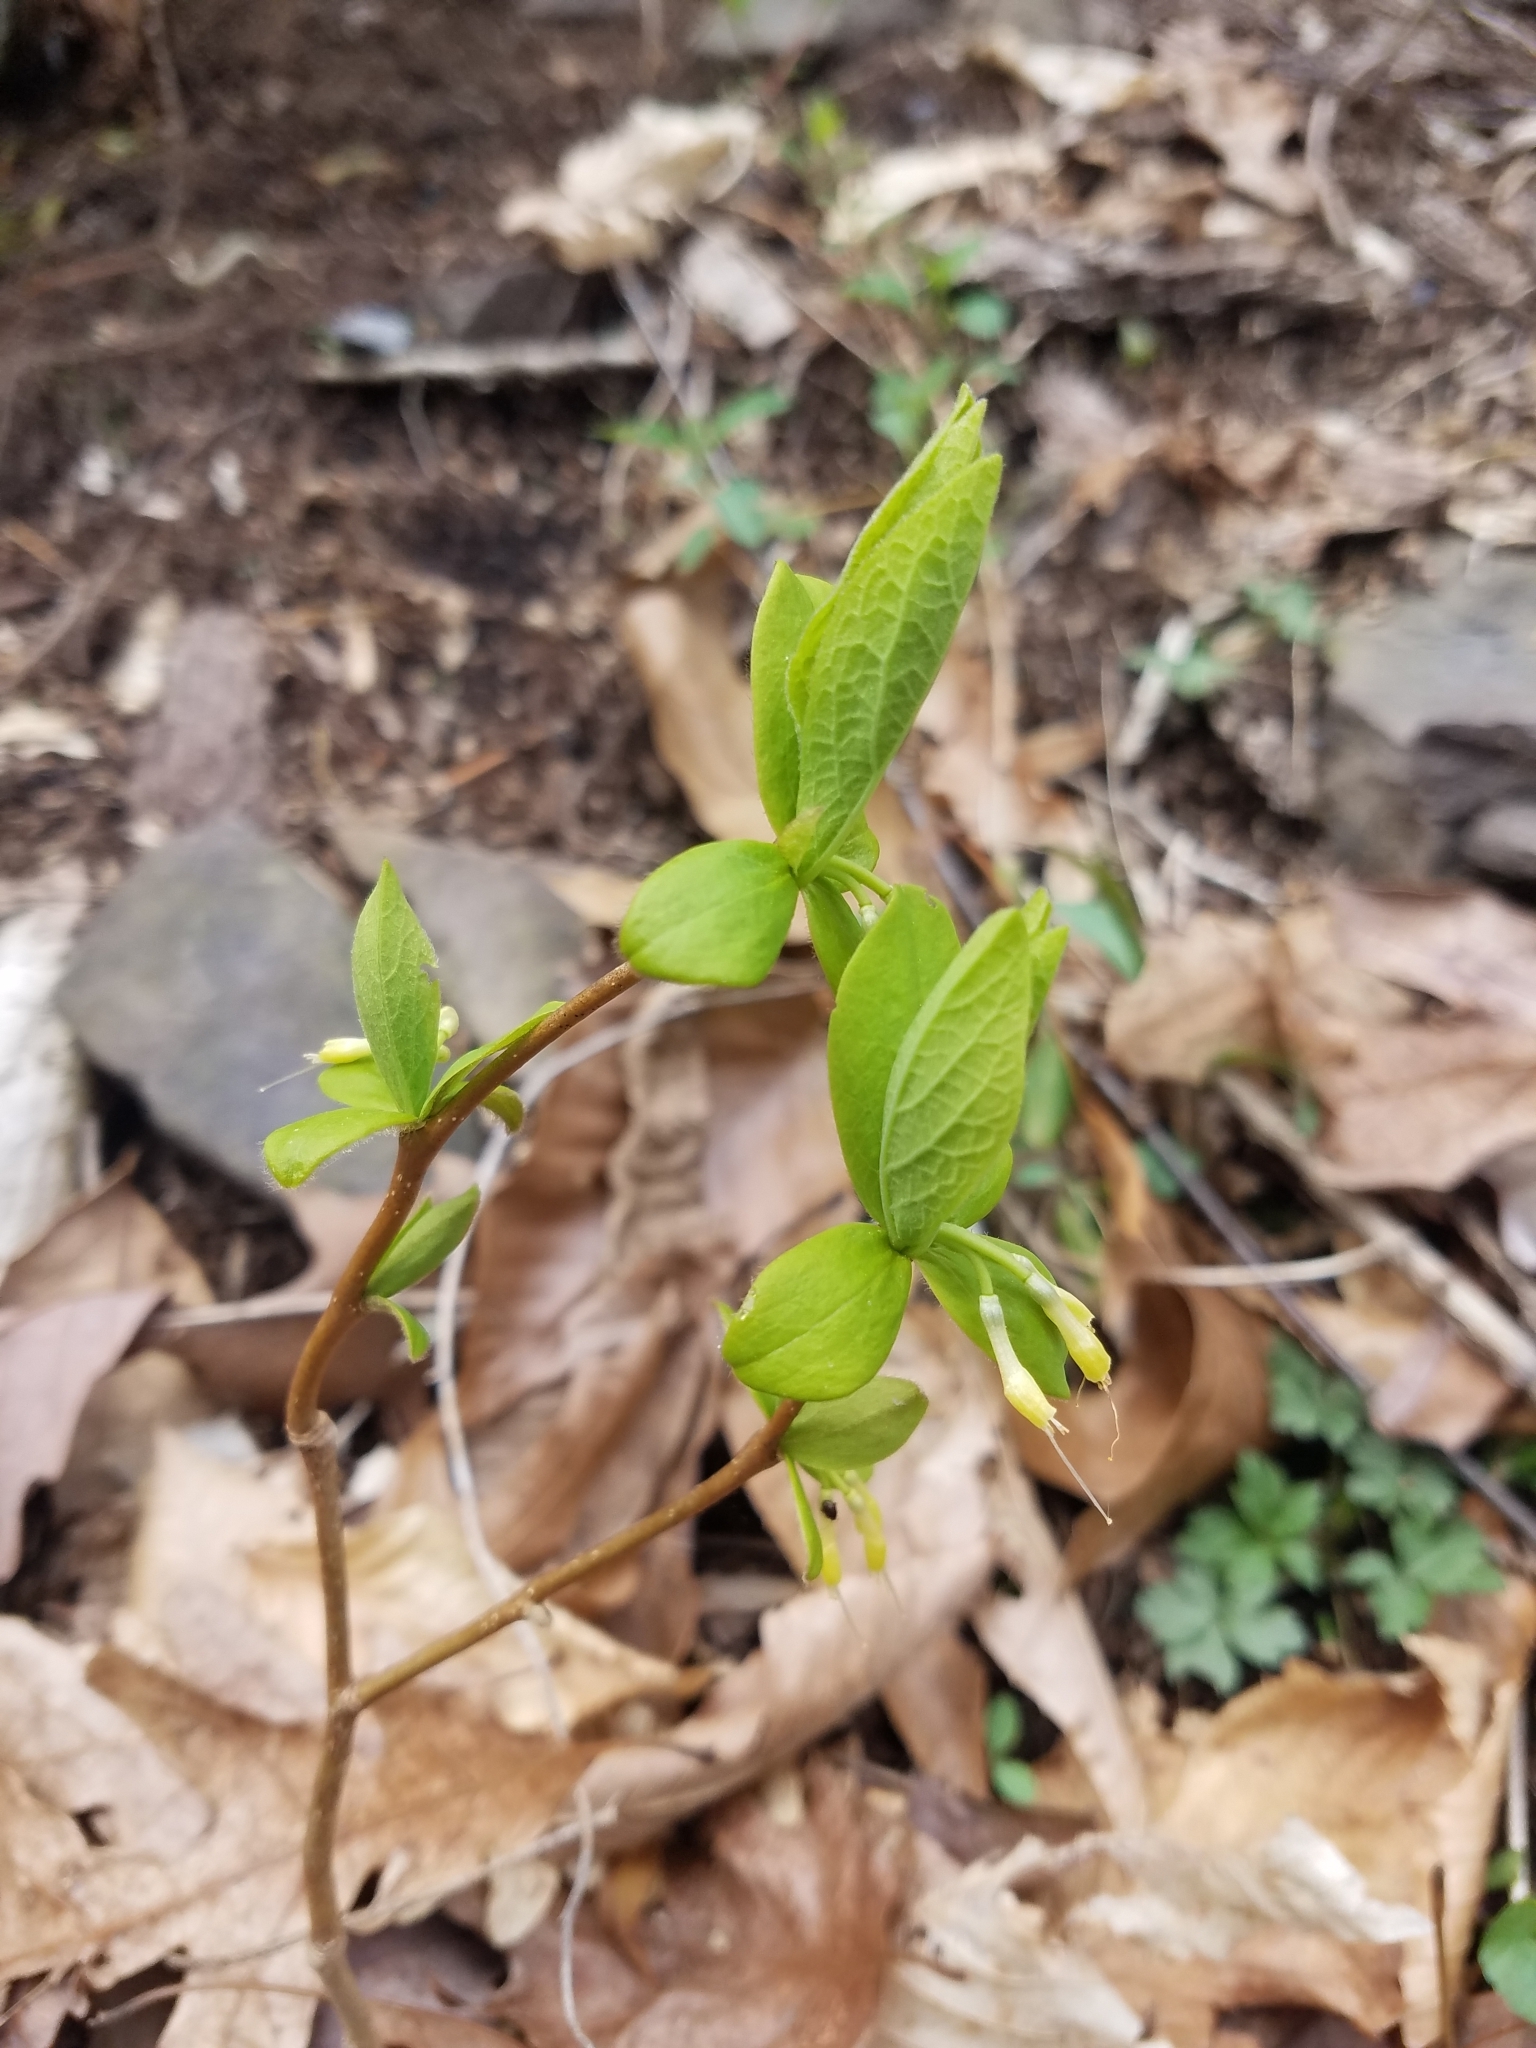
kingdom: Plantae
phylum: Tracheophyta
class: Magnoliopsida
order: Malvales
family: Thymelaeaceae
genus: Dirca
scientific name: Dirca palustris
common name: Leatherwood
